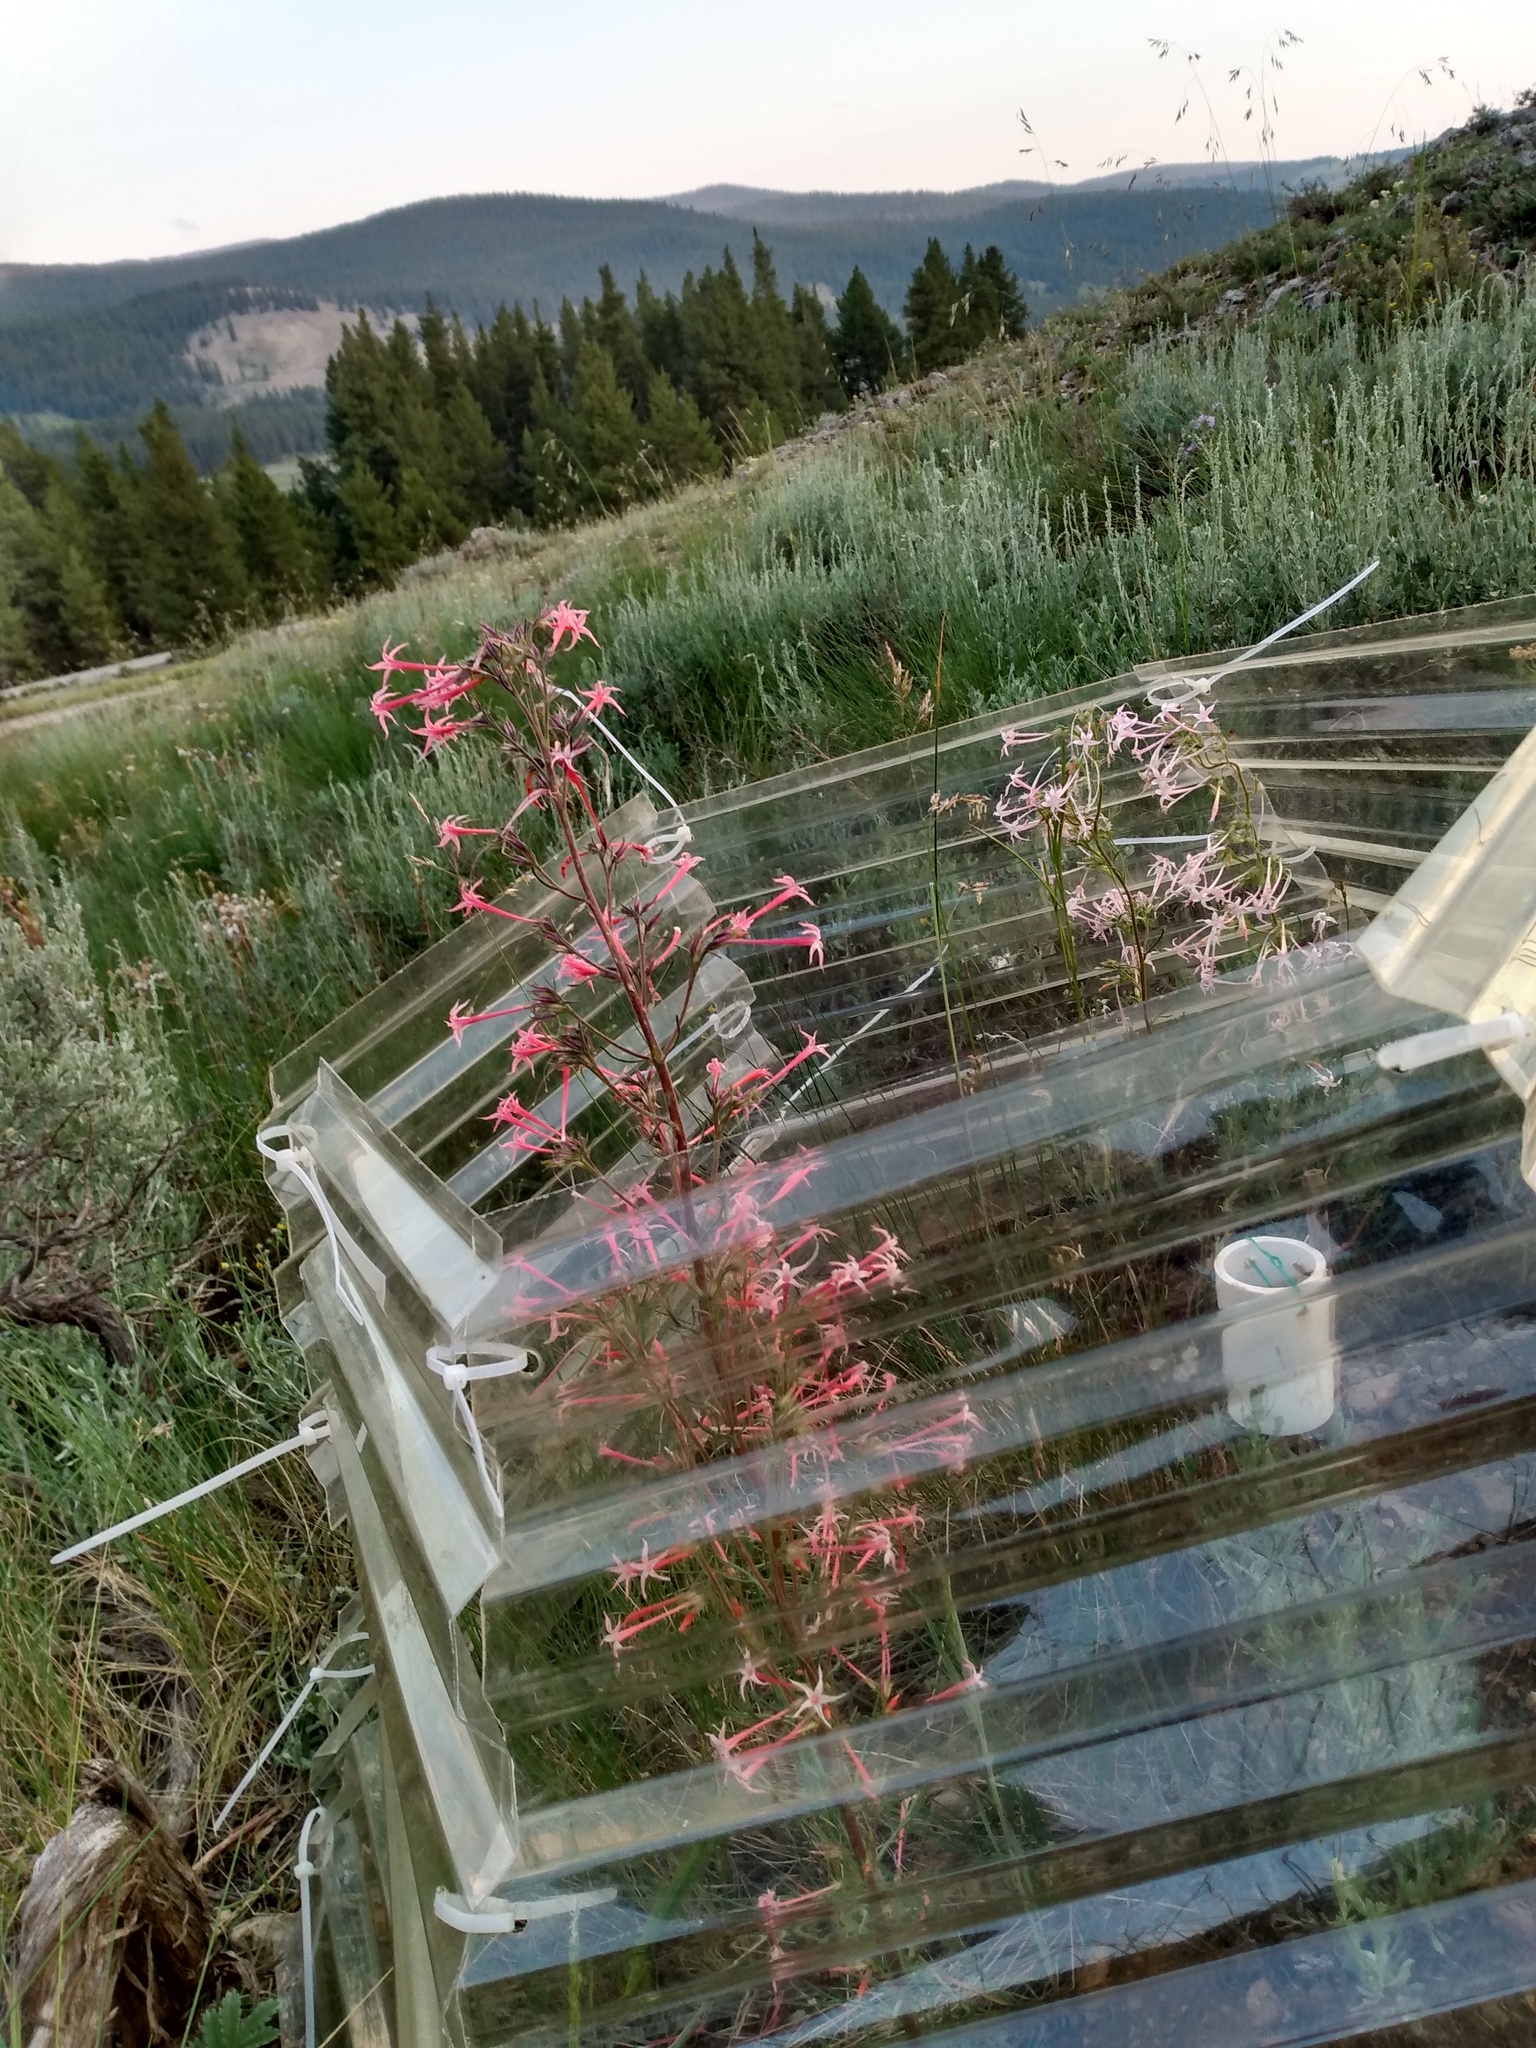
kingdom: Plantae
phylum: Tracheophyta
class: Magnoliopsida
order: Ericales
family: Polemoniaceae
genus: Ipomopsis
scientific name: Ipomopsis tenuituba
